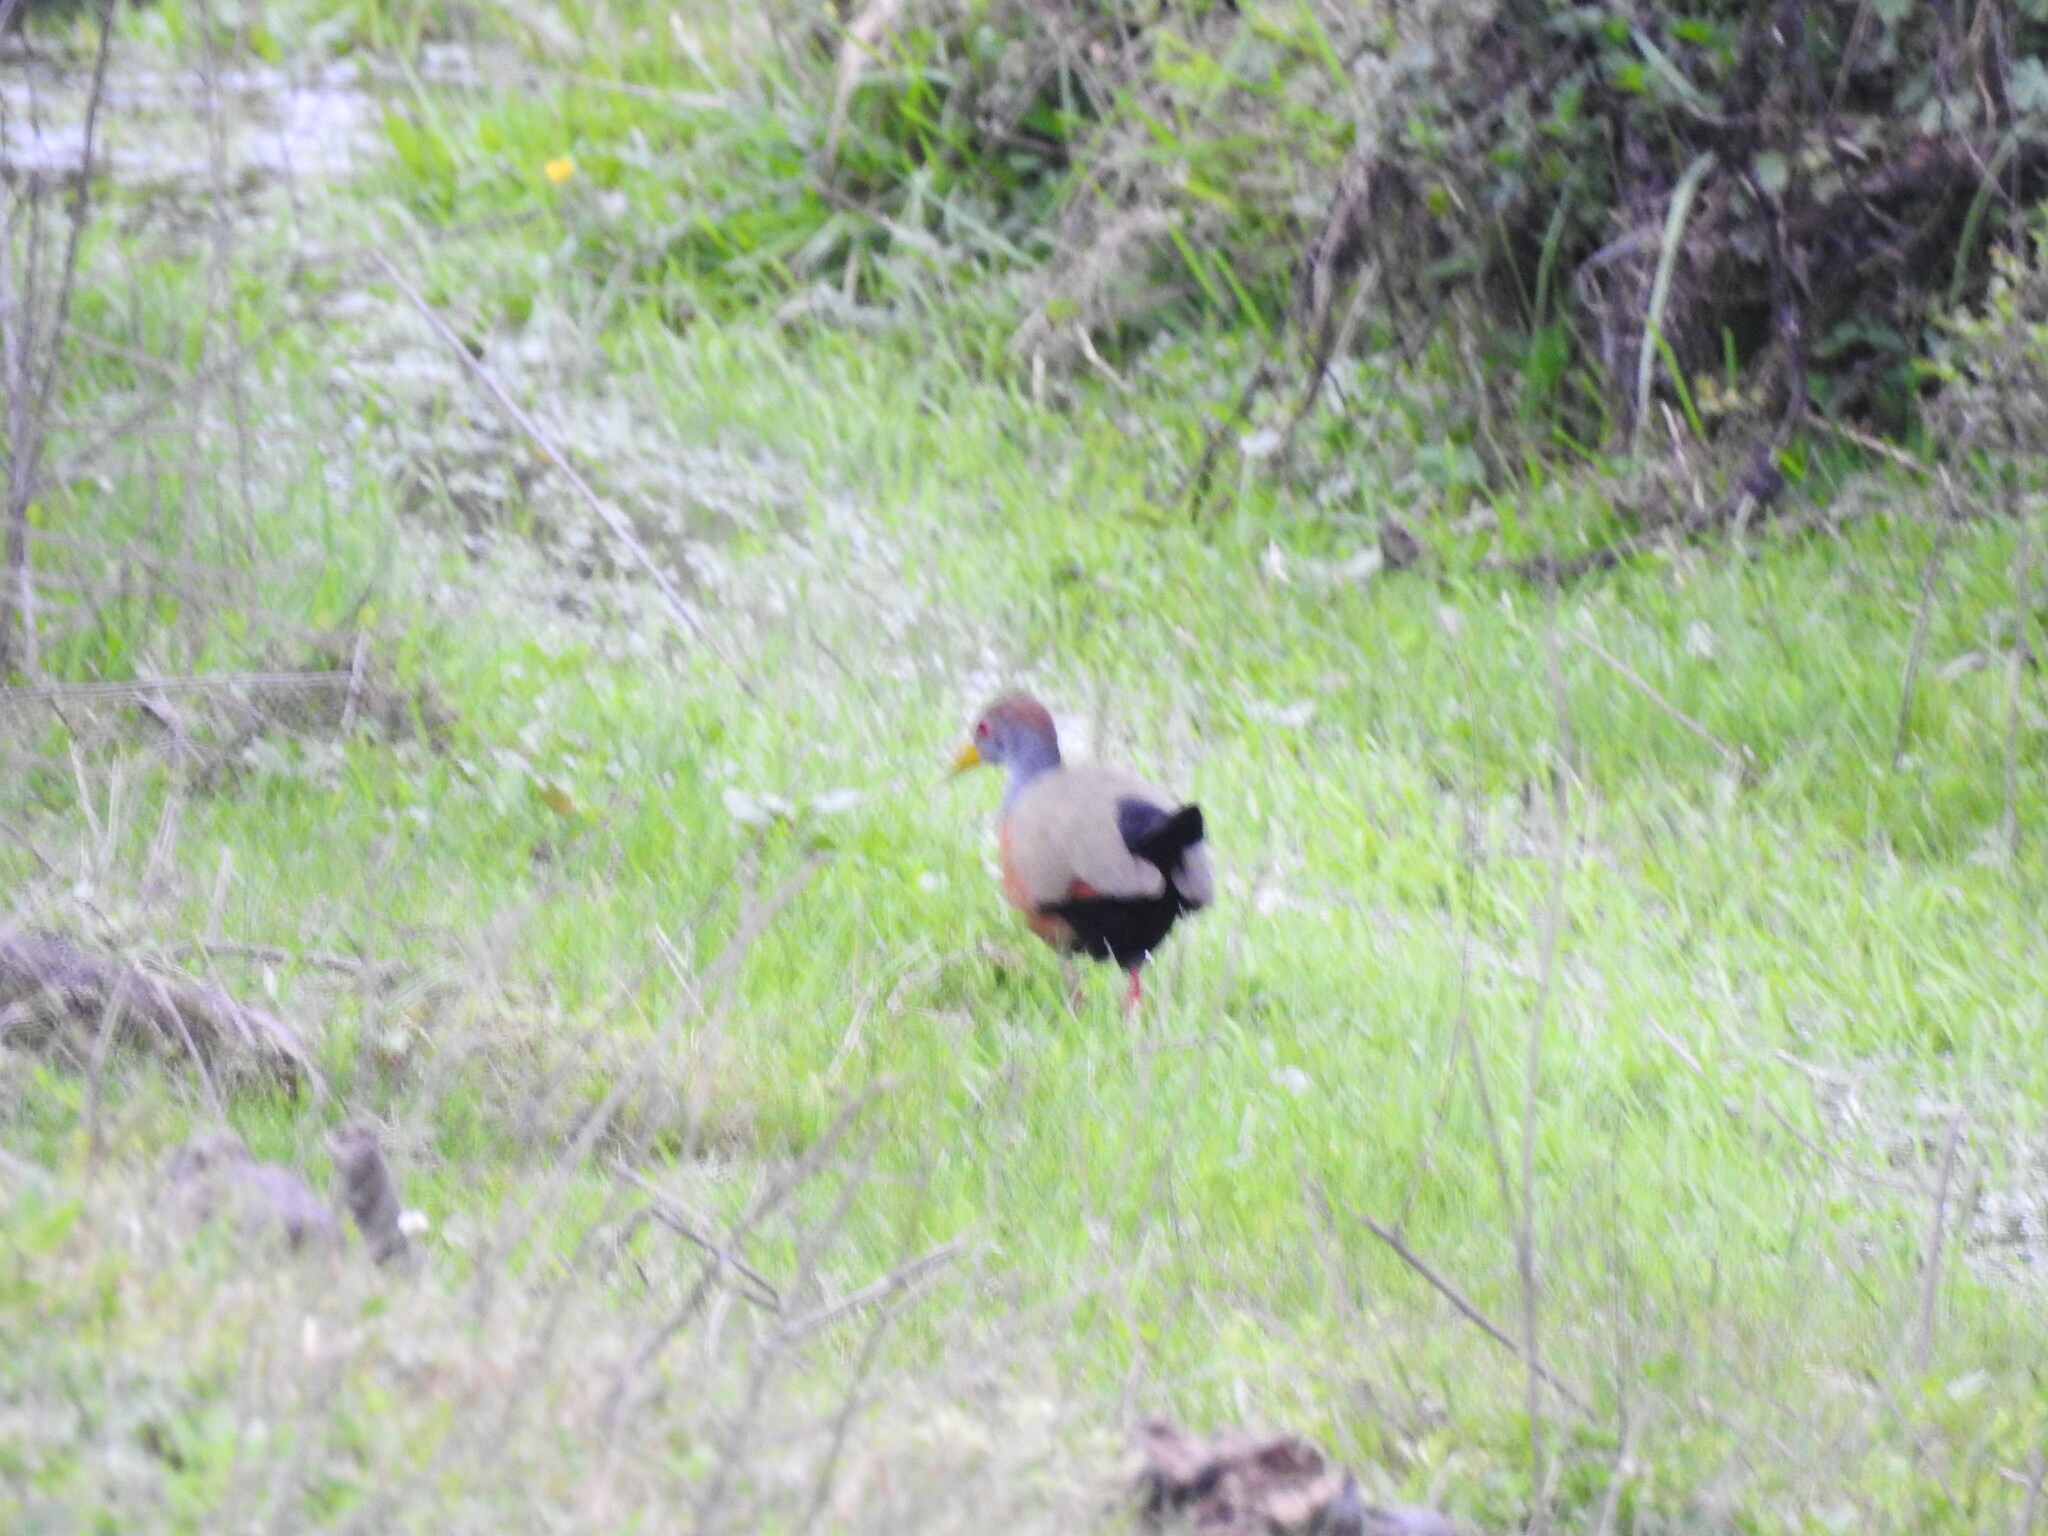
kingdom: Animalia
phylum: Chordata
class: Aves
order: Gruiformes
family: Rallidae
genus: Aramides
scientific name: Aramides cajanea
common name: Gray-necked wood-rail
